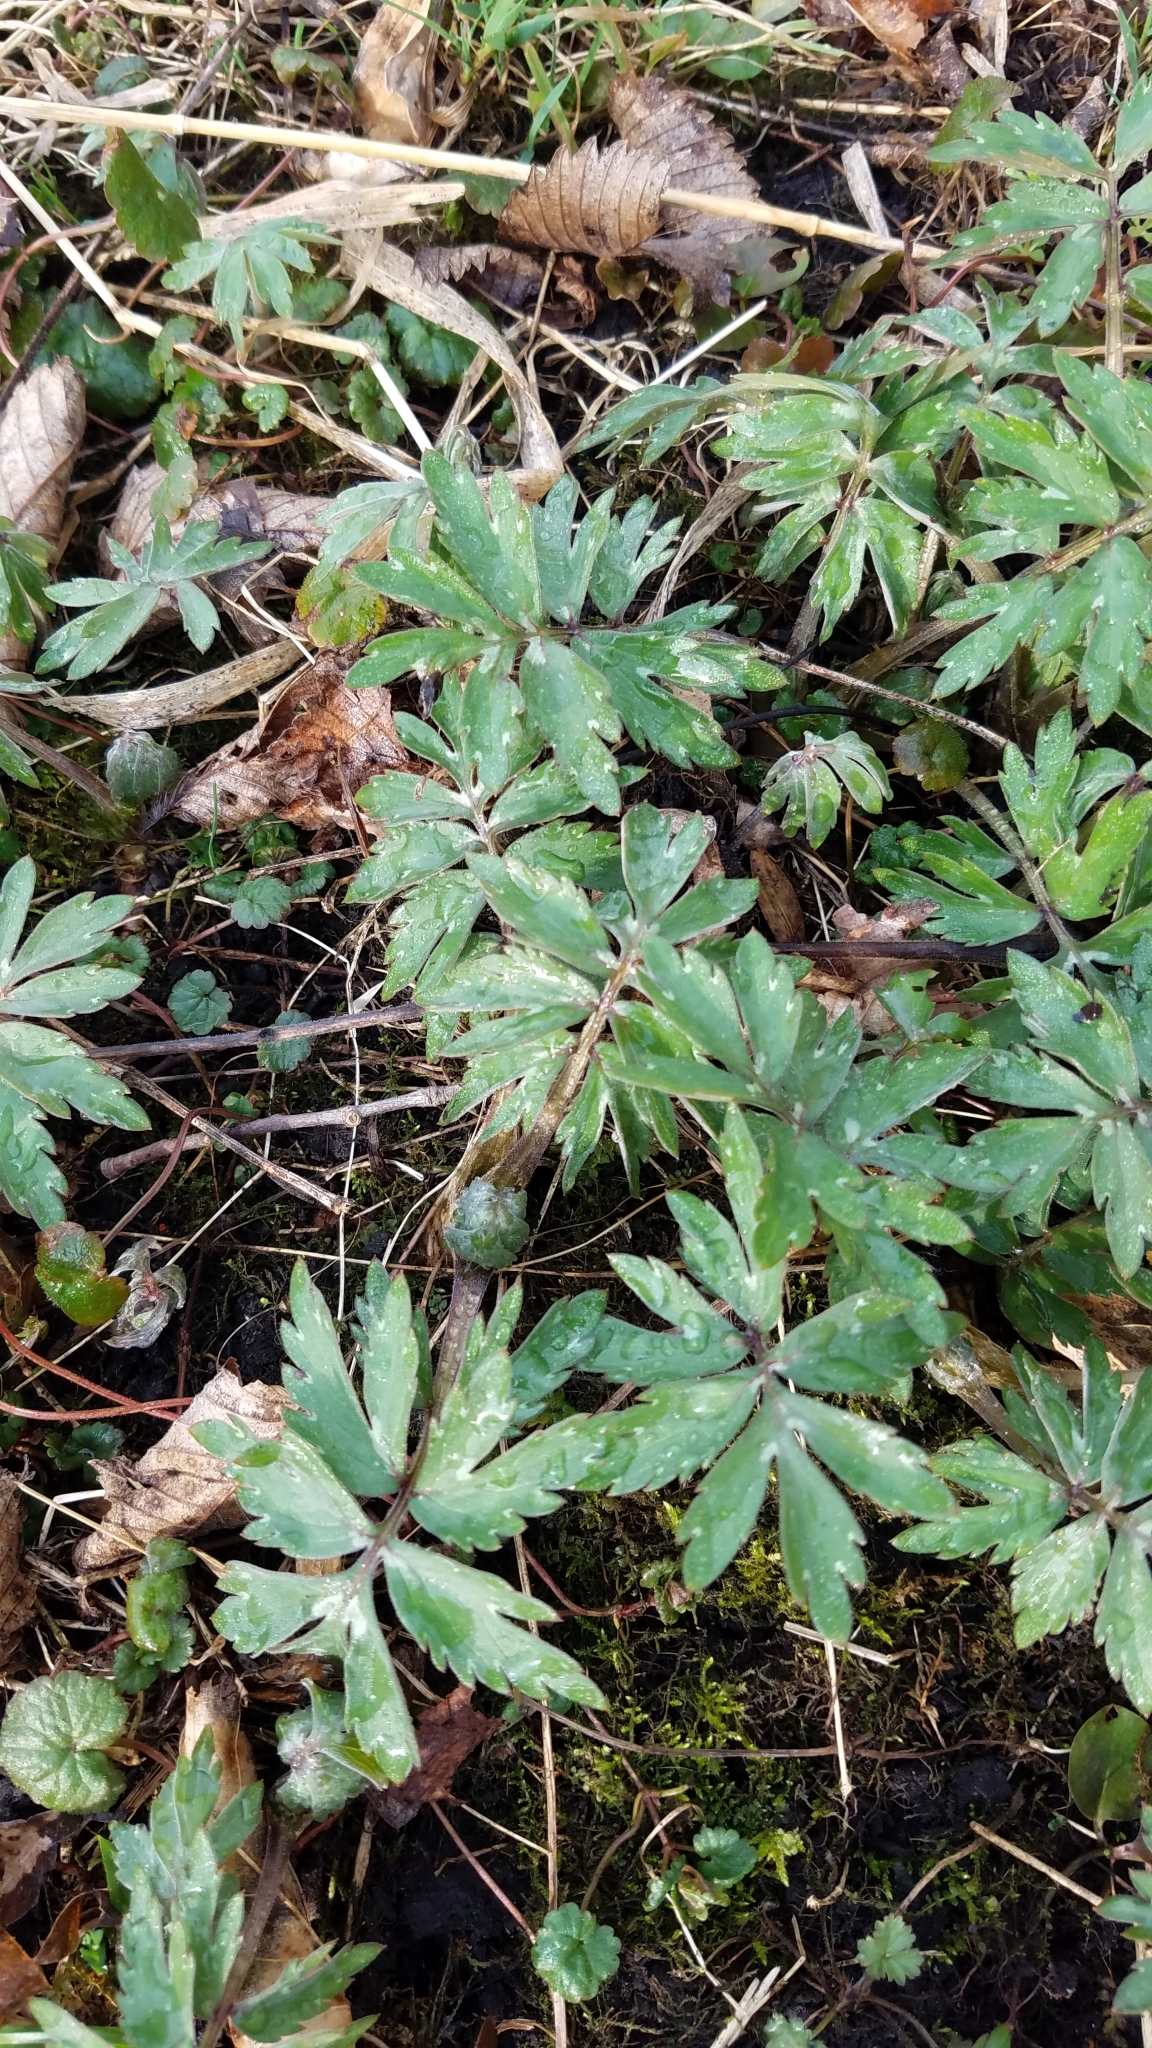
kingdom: Plantae
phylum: Tracheophyta
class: Magnoliopsida
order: Boraginales
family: Hydrophyllaceae
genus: Hydrophyllum
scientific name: Hydrophyllum virginianum
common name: Virginia waterleaf
